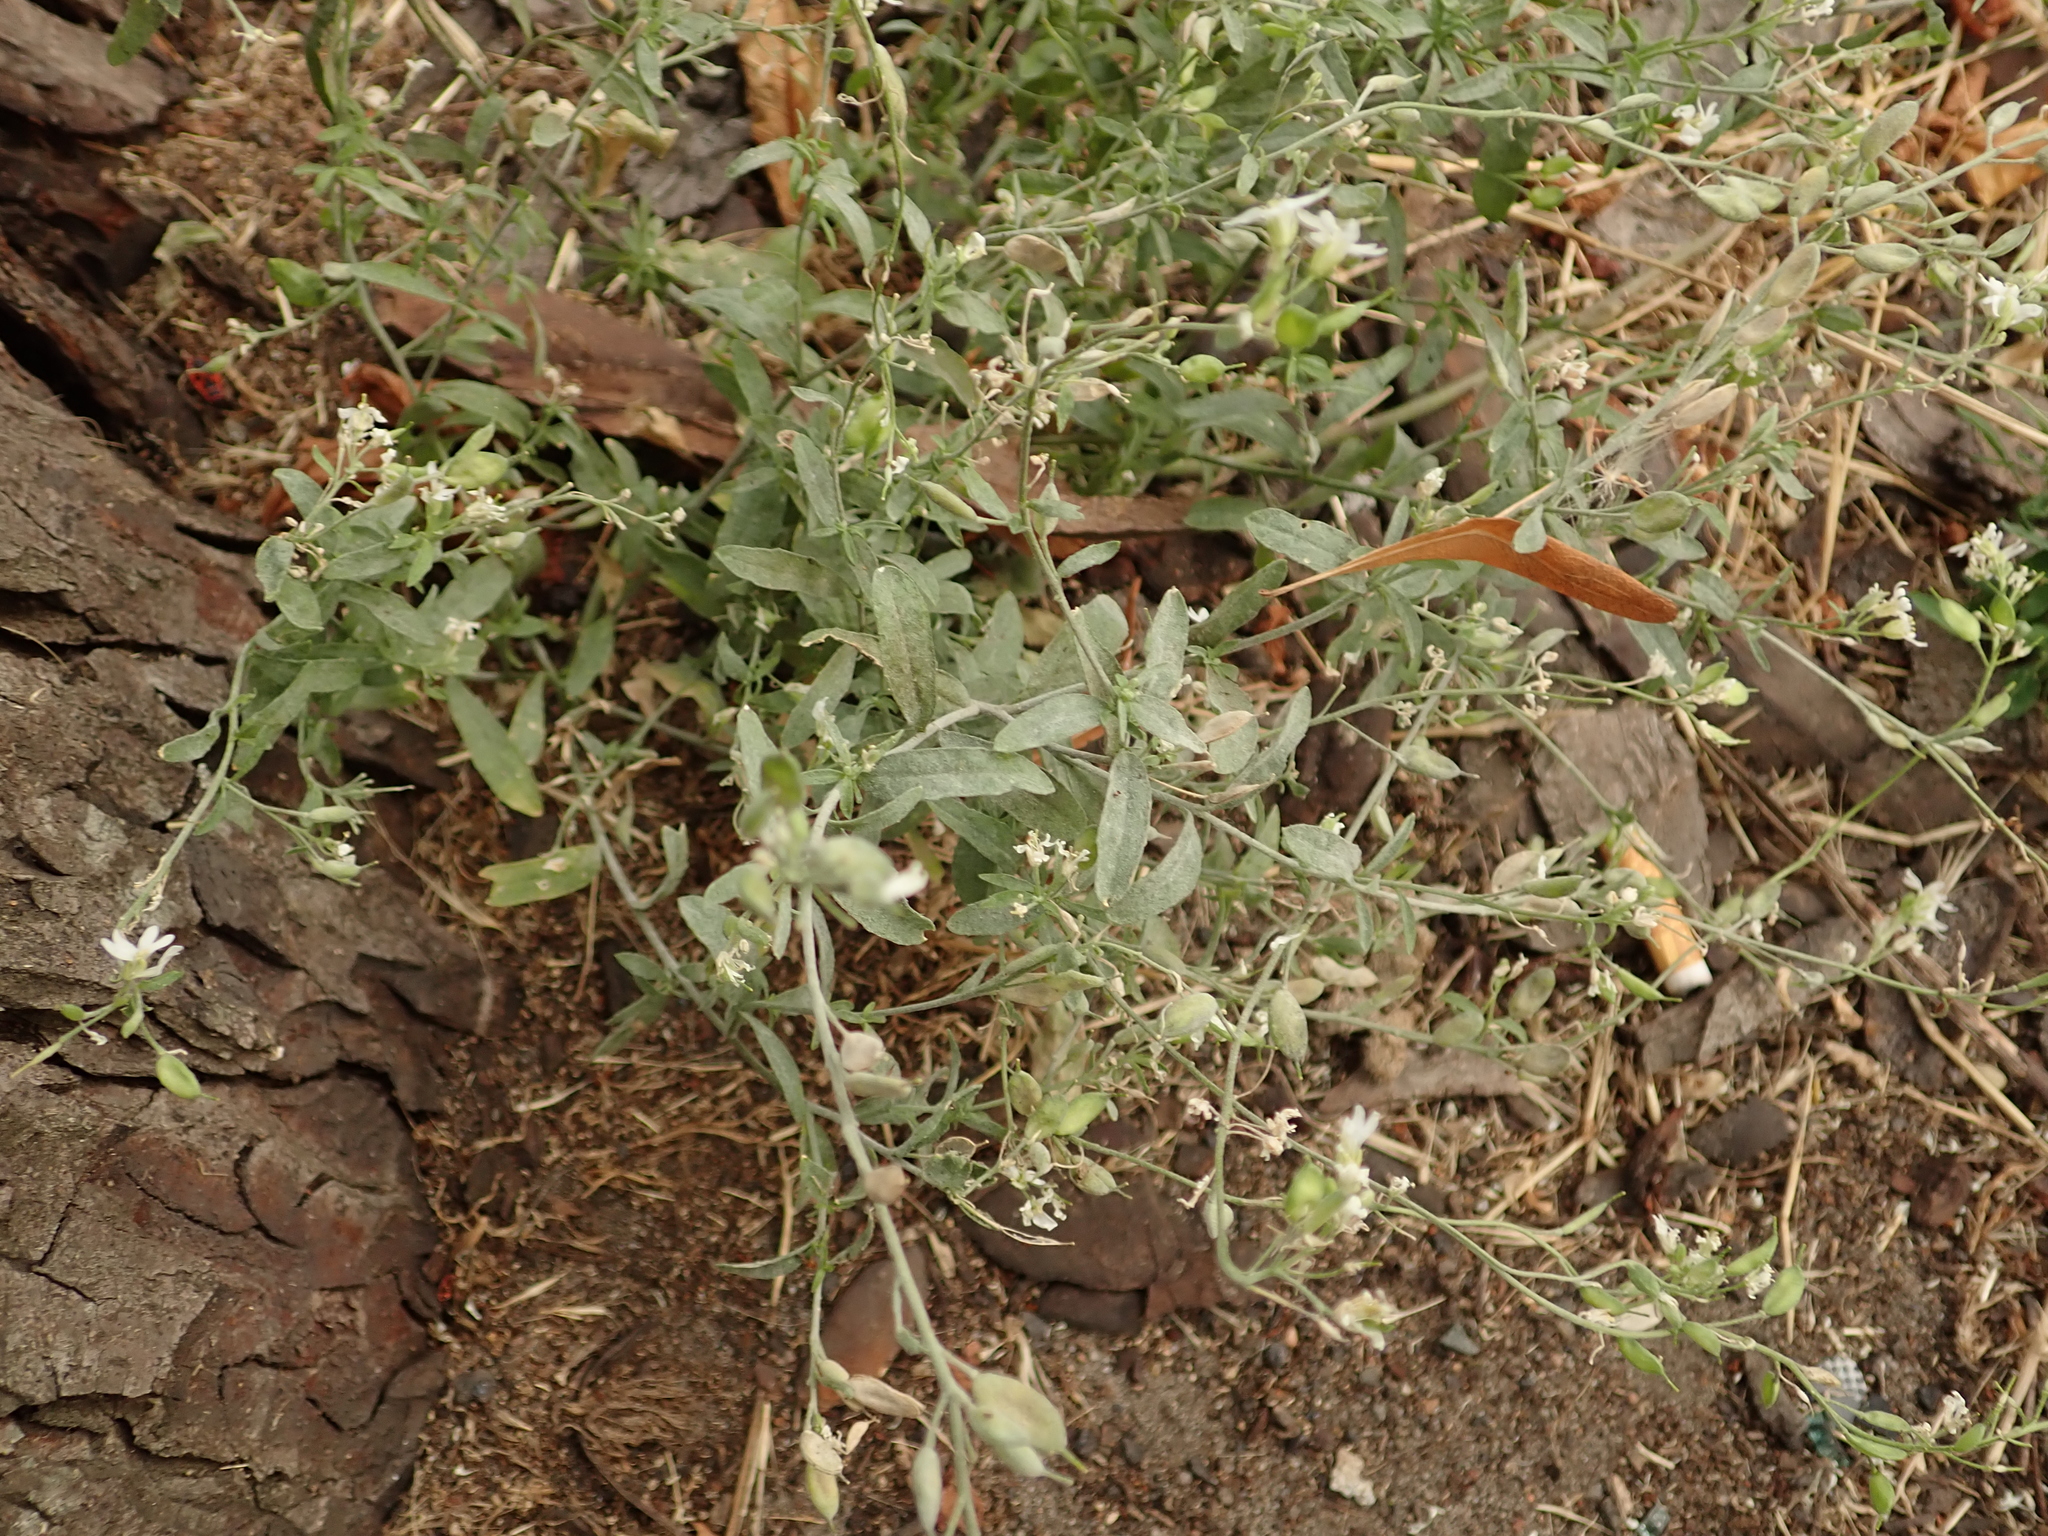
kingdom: Plantae
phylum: Tracheophyta
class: Magnoliopsida
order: Brassicales
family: Brassicaceae
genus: Berteroa
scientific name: Berteroa incana
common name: Hoary alison
